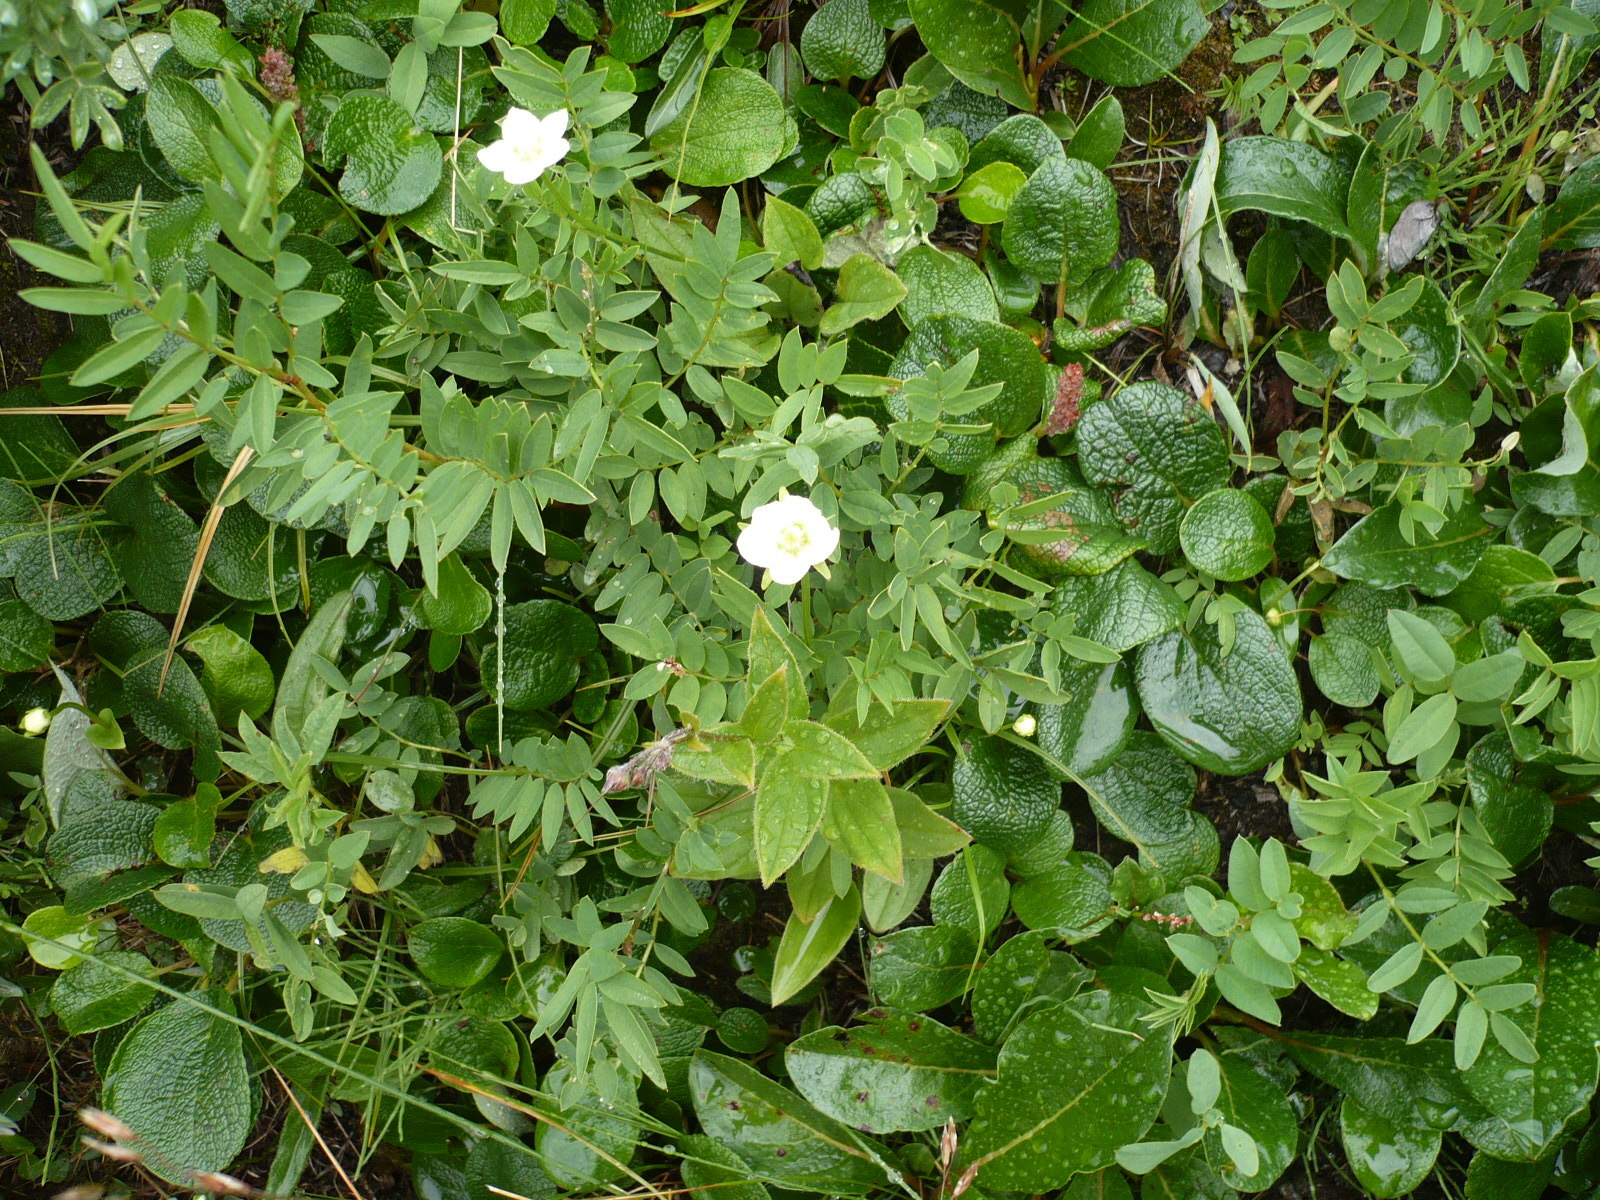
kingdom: Plantae
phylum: Tracheophyta
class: Magnoliopsida
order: Celastrales
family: Parnassiaceae
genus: Parnassia
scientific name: Parnassia palustris
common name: Grass-of-parnassus
